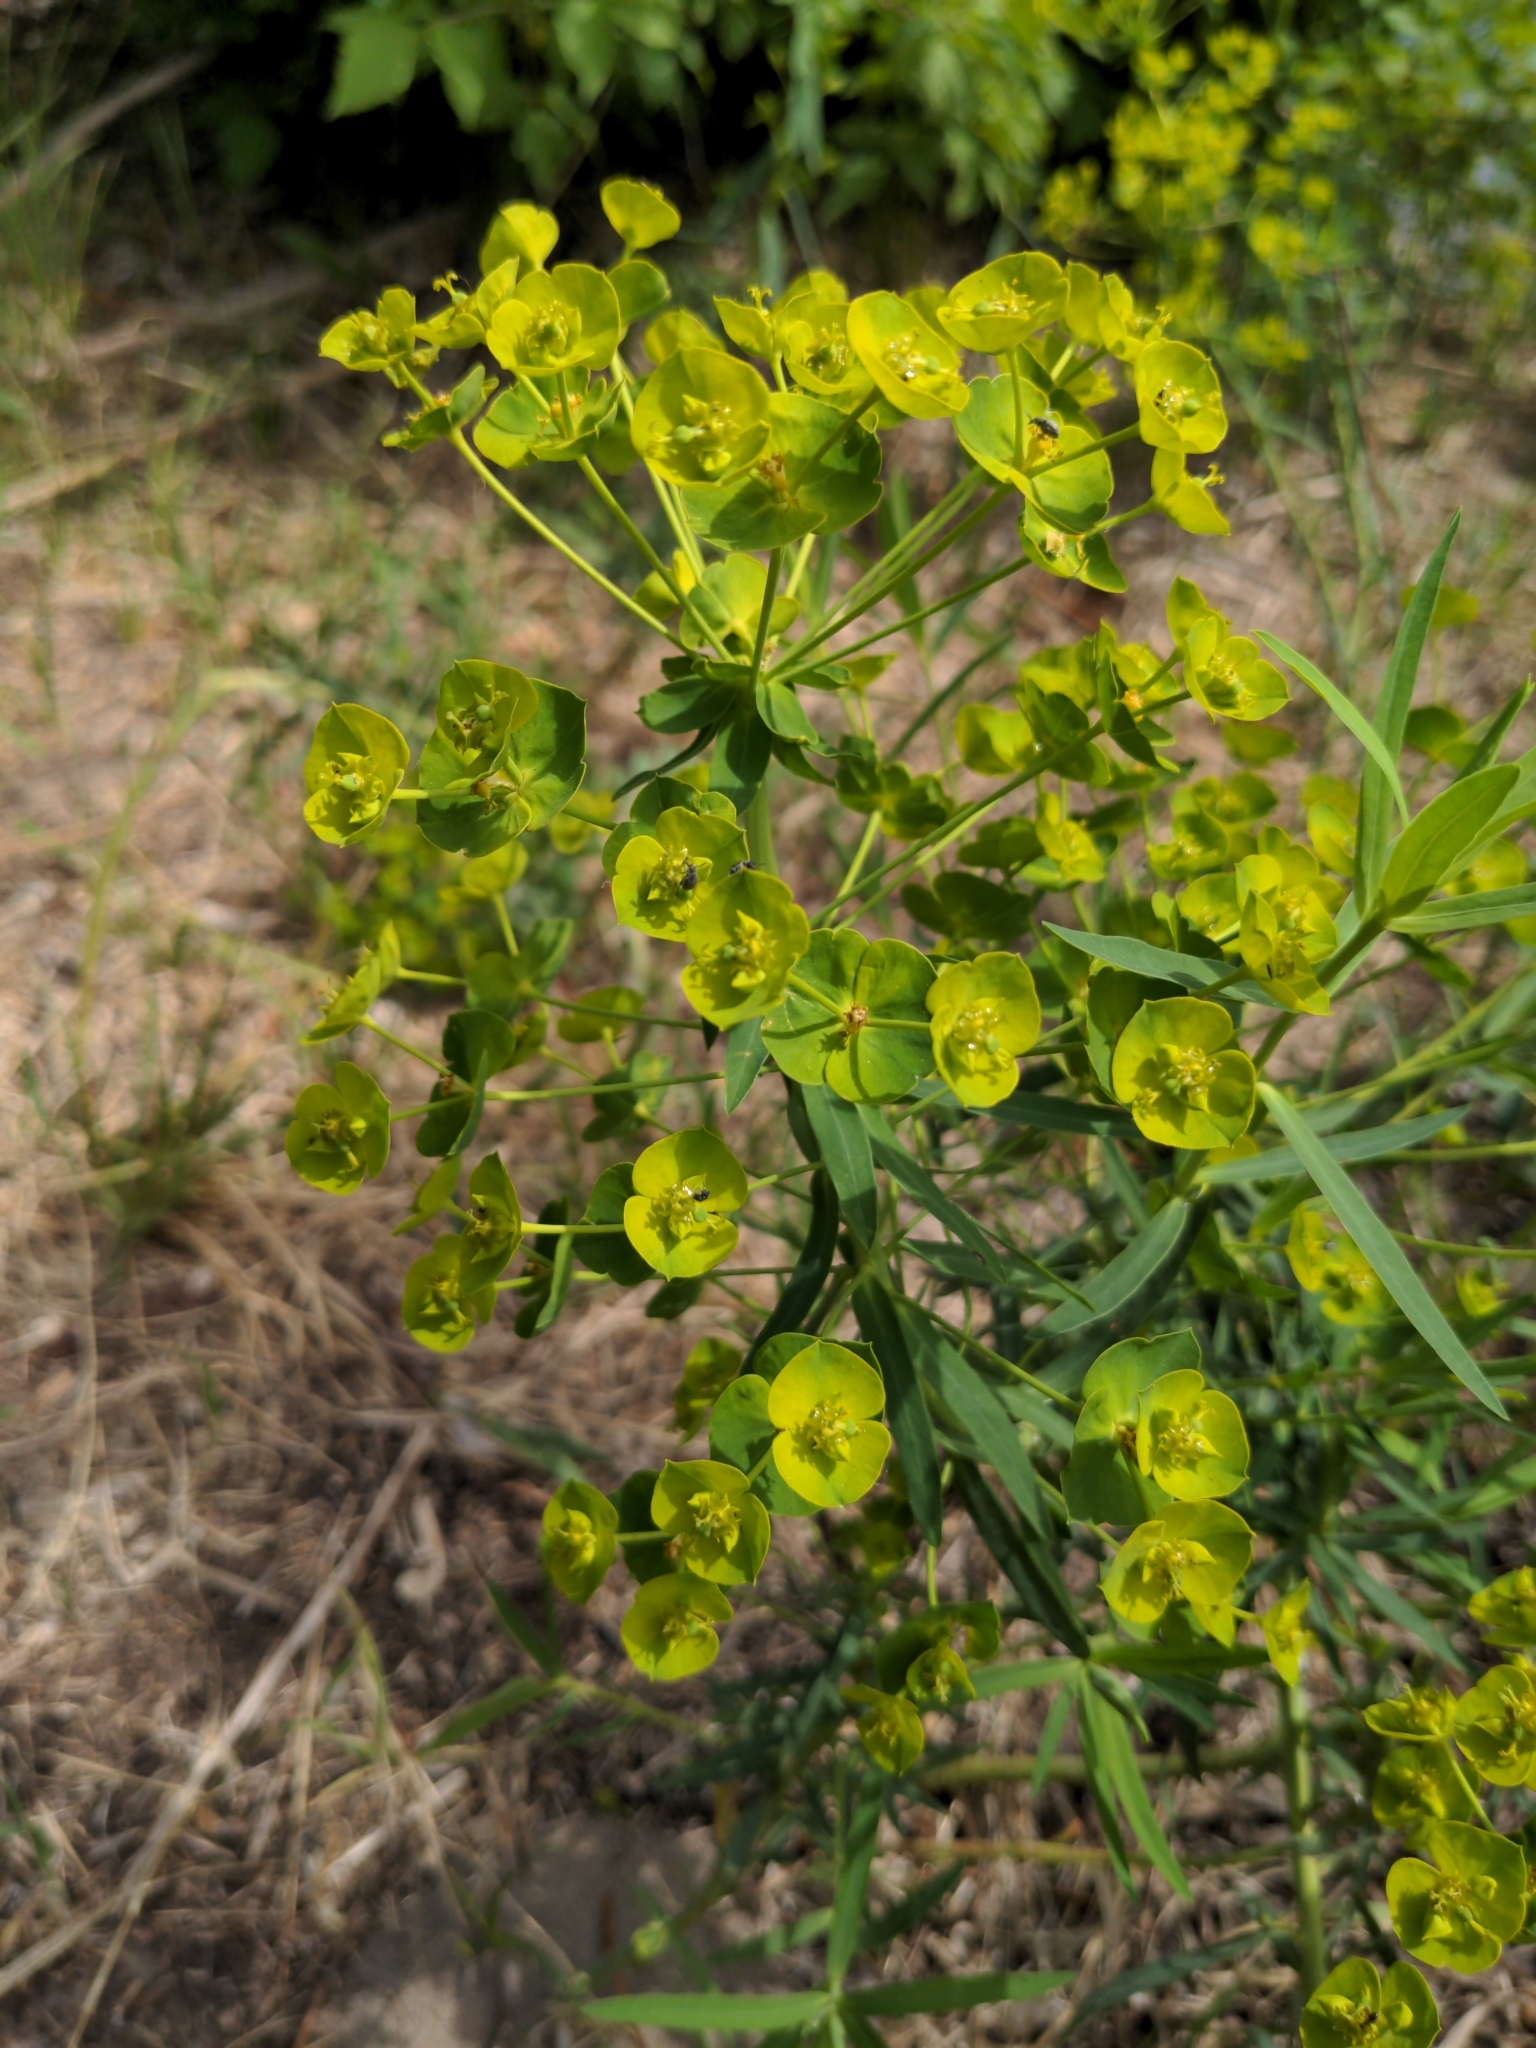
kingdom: Plantae
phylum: Tracheophyta
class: Magnoliopsida
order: Malpighiales
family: Euphorbiaceae
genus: Euphorbia
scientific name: Euphorbia virgata
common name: Leafy spurge
